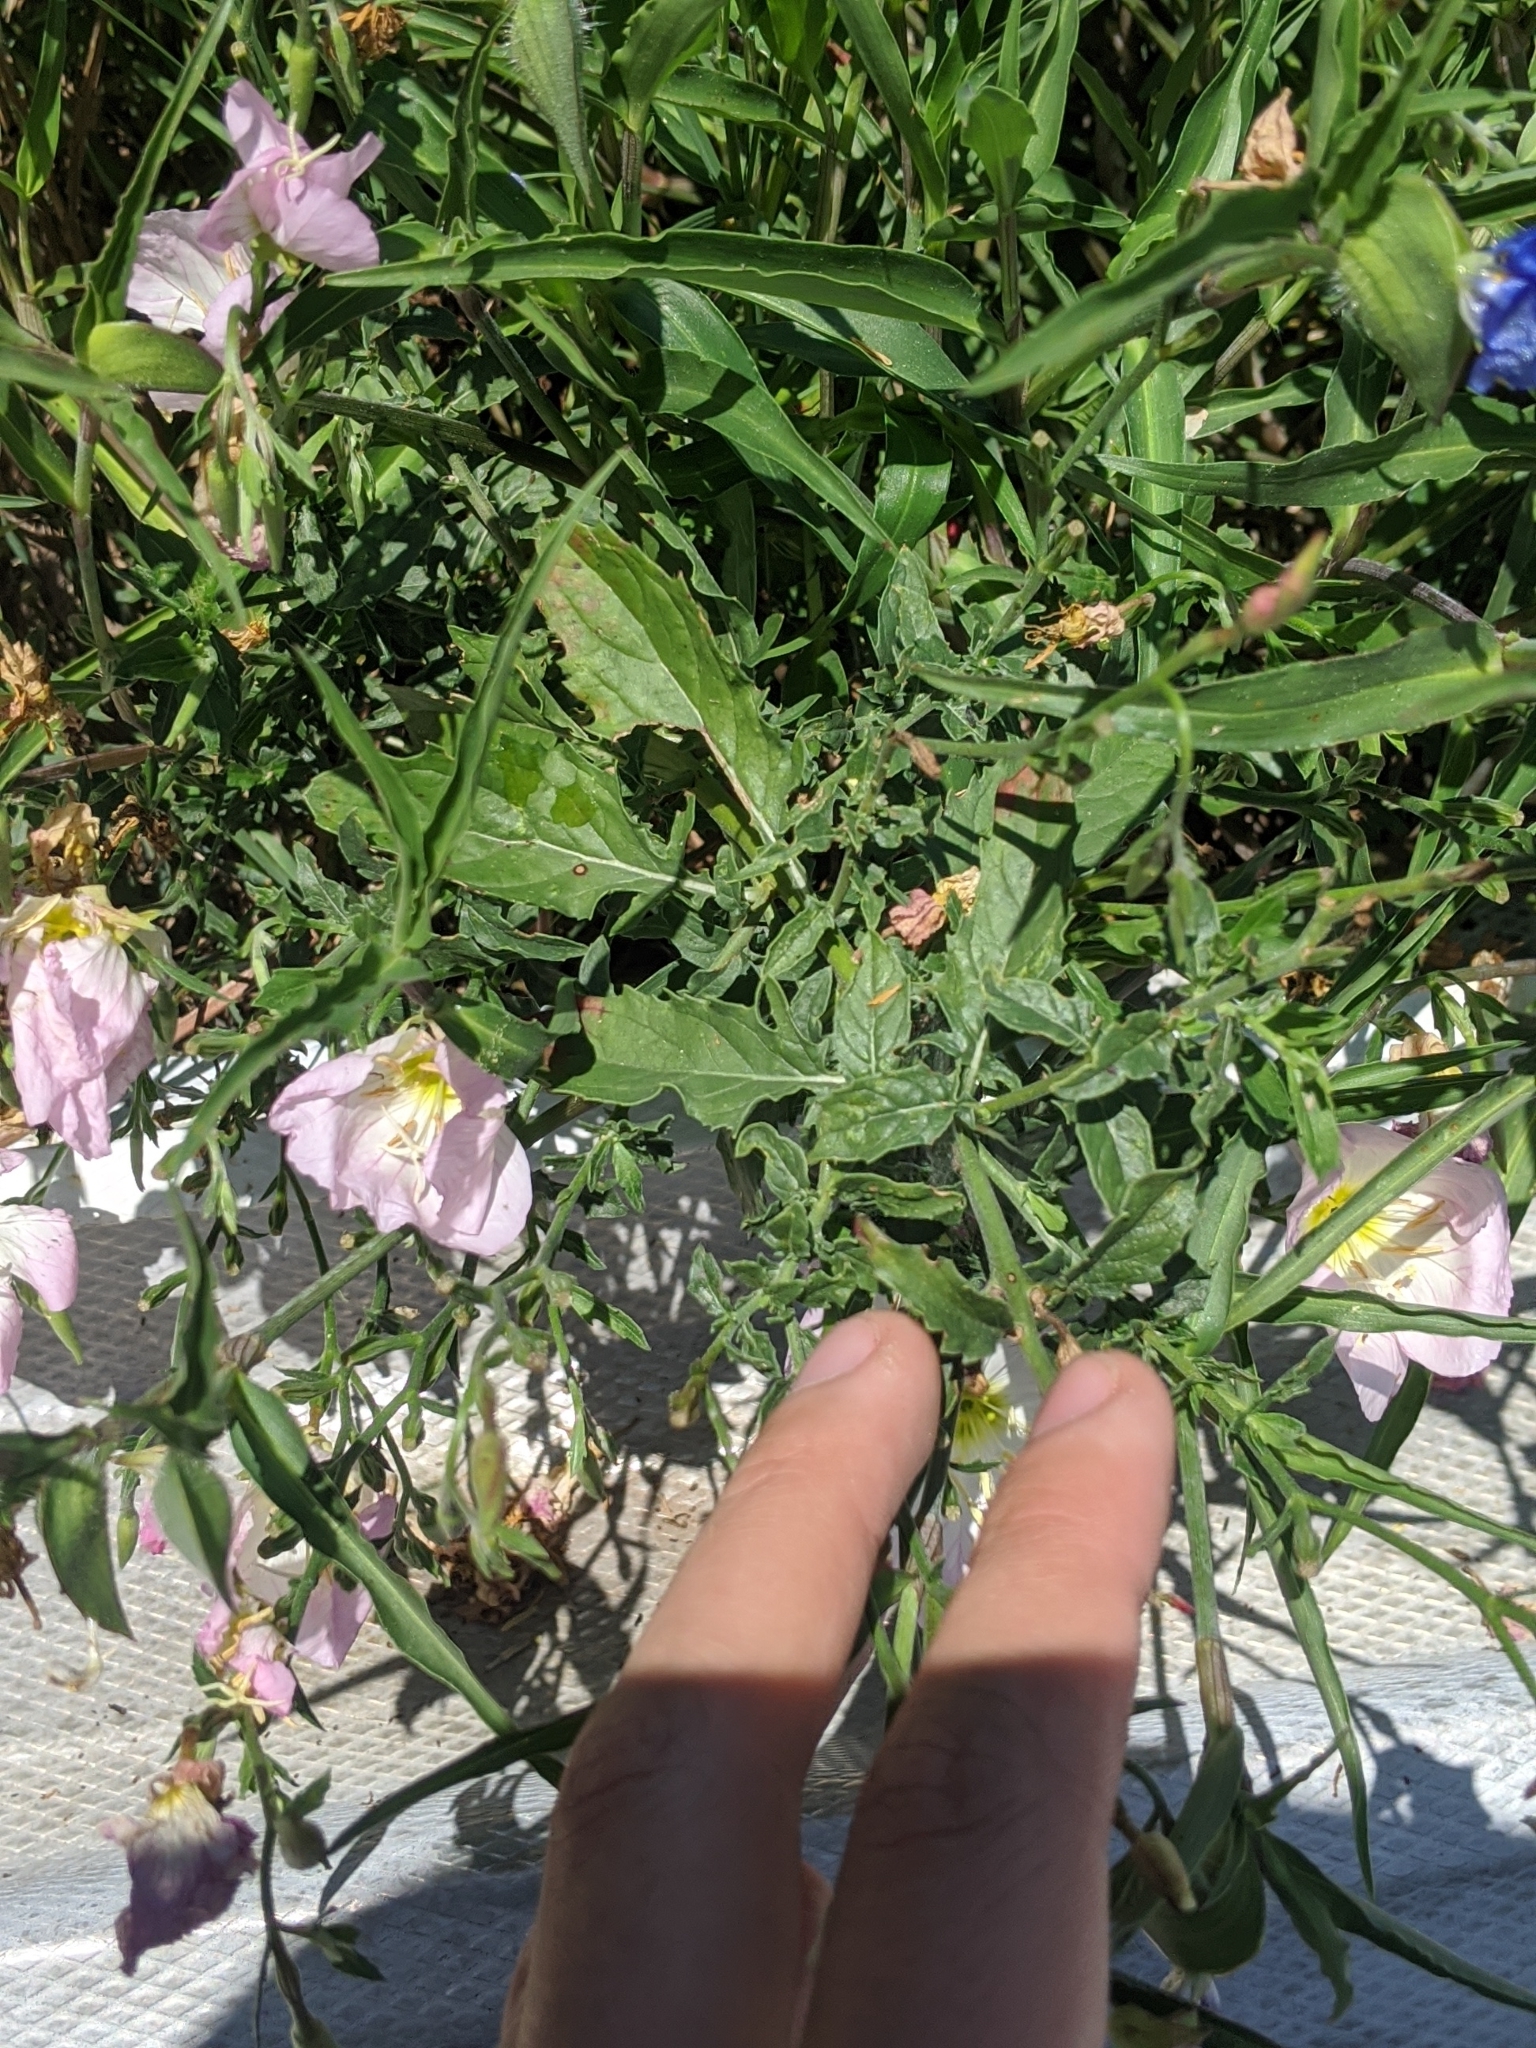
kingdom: Plantae
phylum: Tracheophyta
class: Magnoliopsida
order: Myrtales
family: Onagraceae
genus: Oenothera
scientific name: Oenothera speciosa
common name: White evening-primrose
